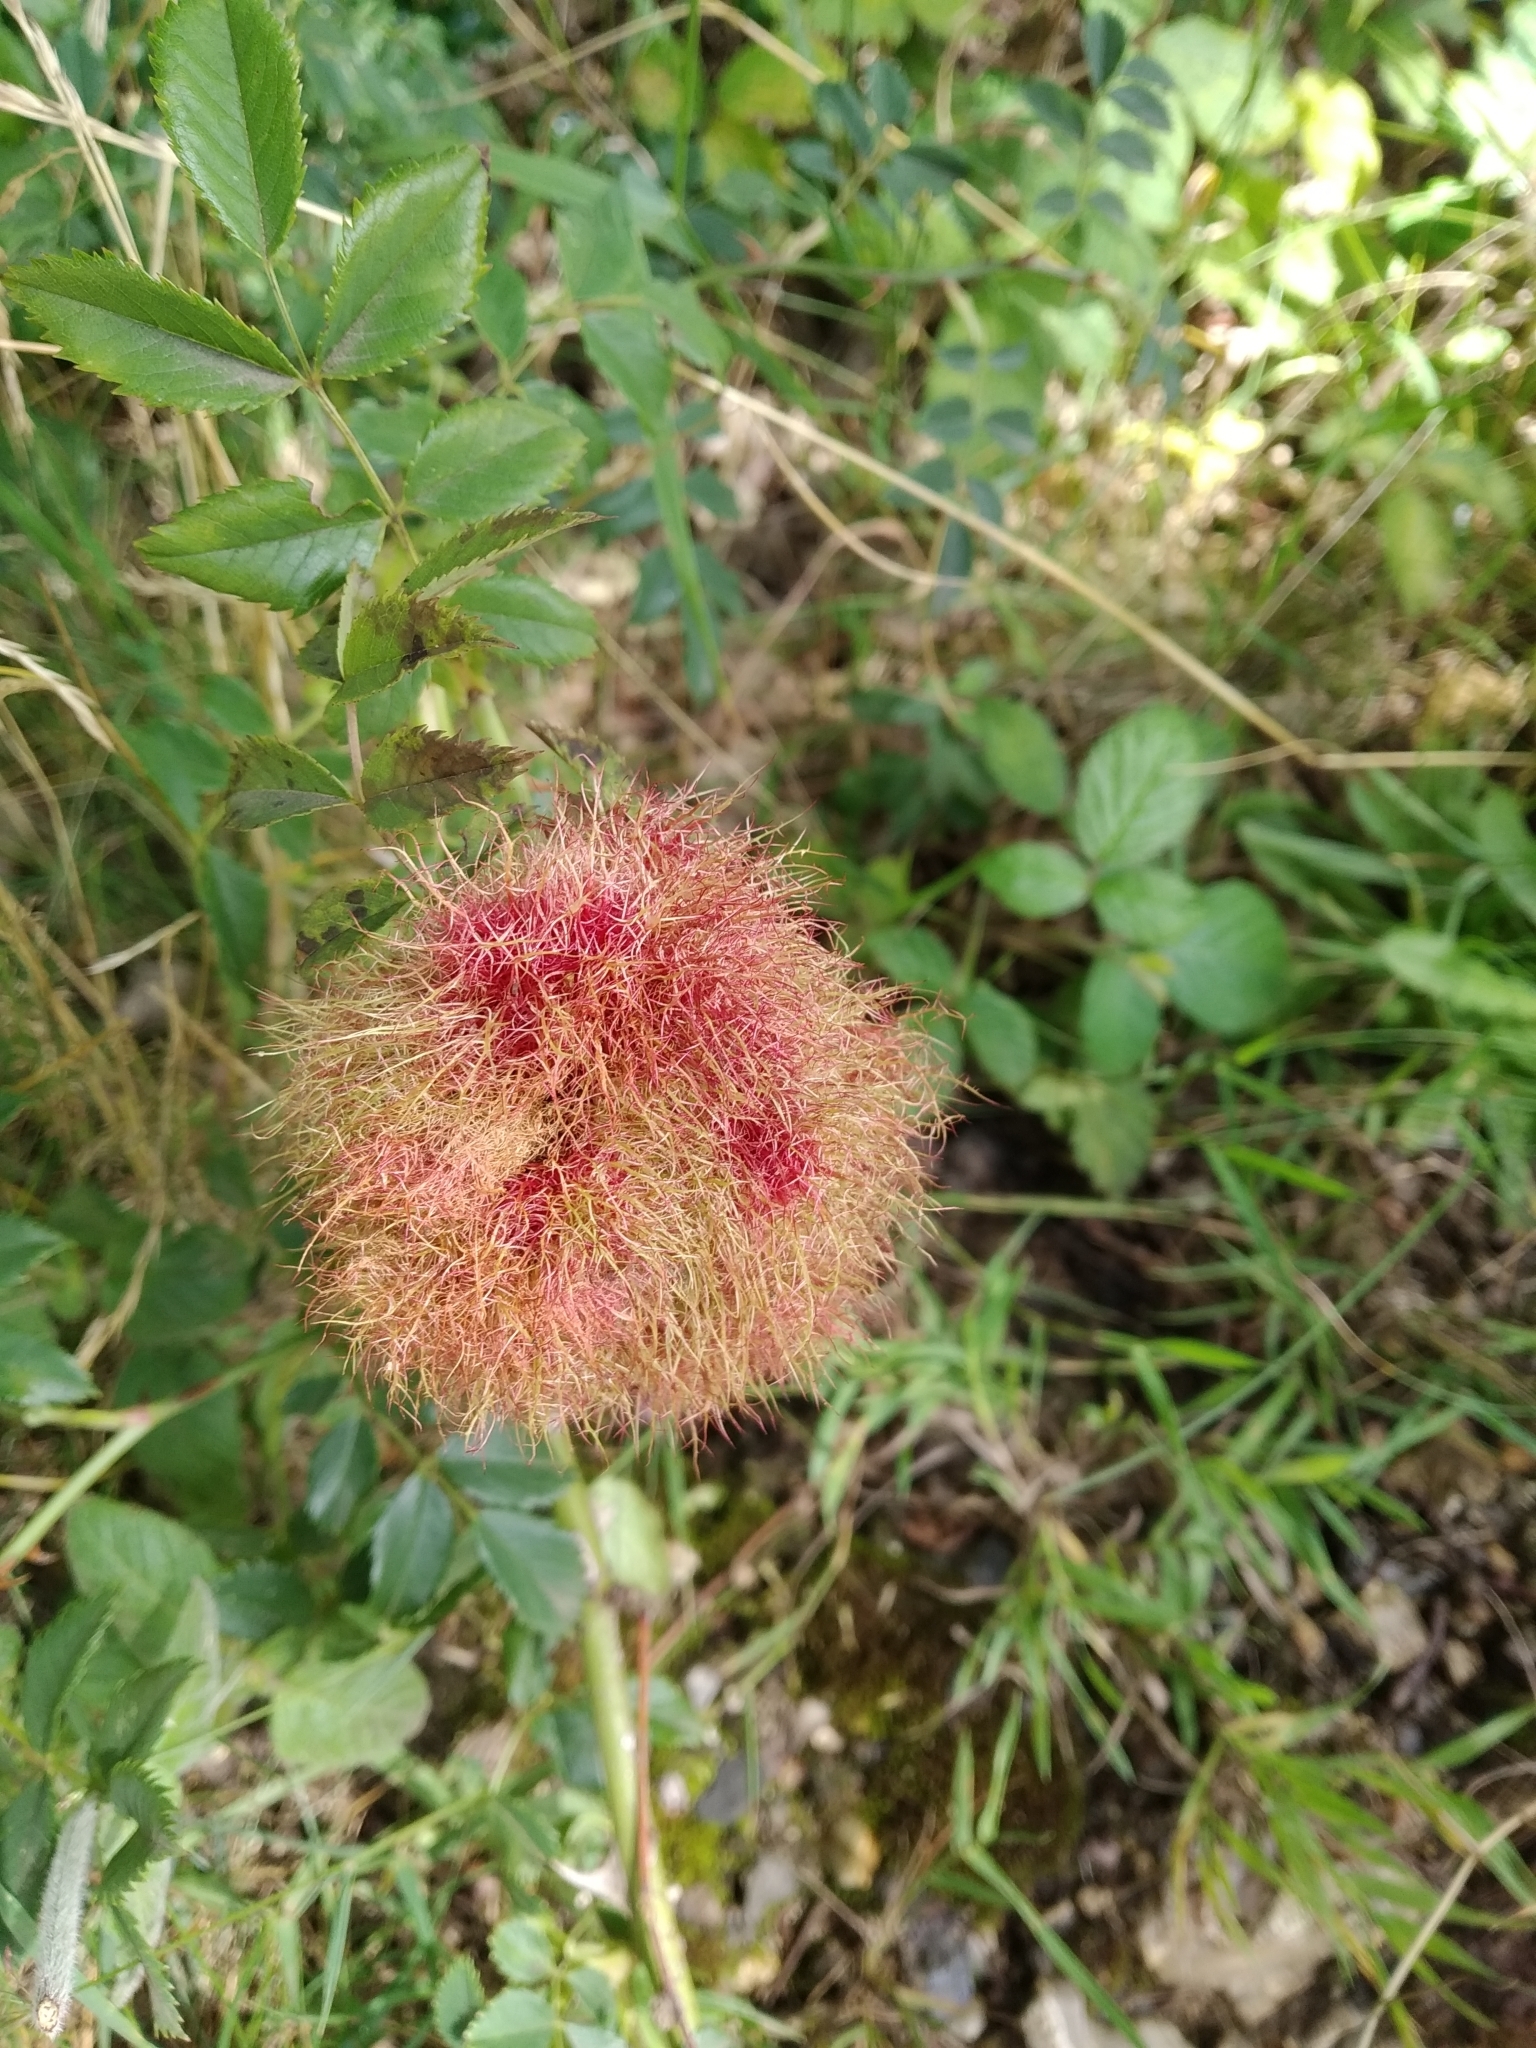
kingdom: Animalia
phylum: Arthropoda
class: Insecta
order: Hymenoptera
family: Cynipidae
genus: Diplolepis
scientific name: Diplolepis rosae
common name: Bedeguar gall
